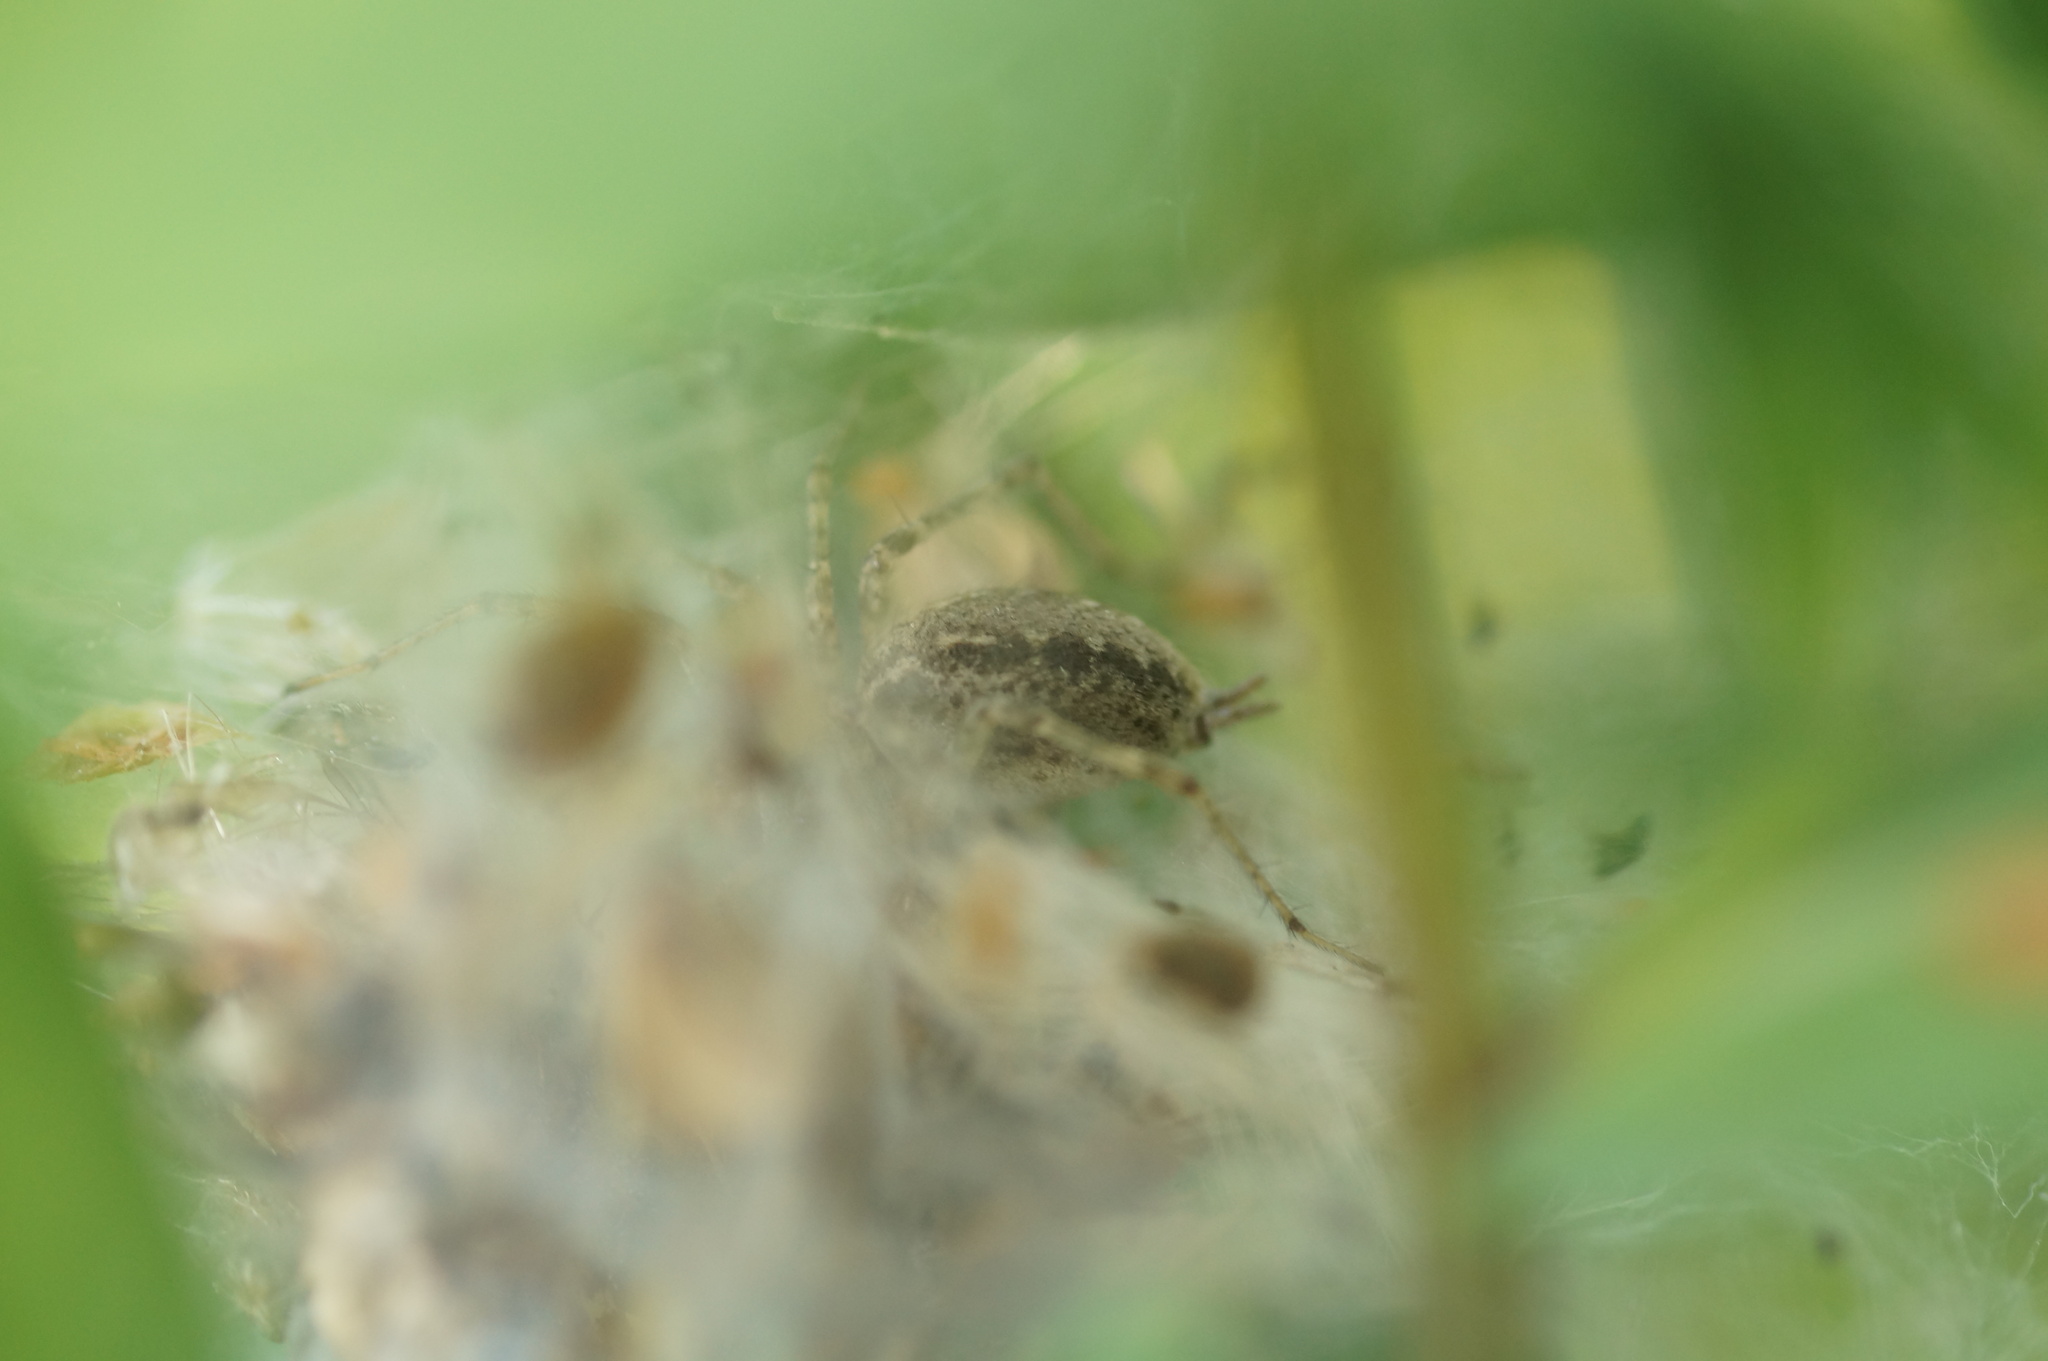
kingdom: Animalia
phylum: Arthropoda
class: Arachnida
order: Araneae
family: Agelenidae
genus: Allagelena
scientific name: Allagelena gracilens
